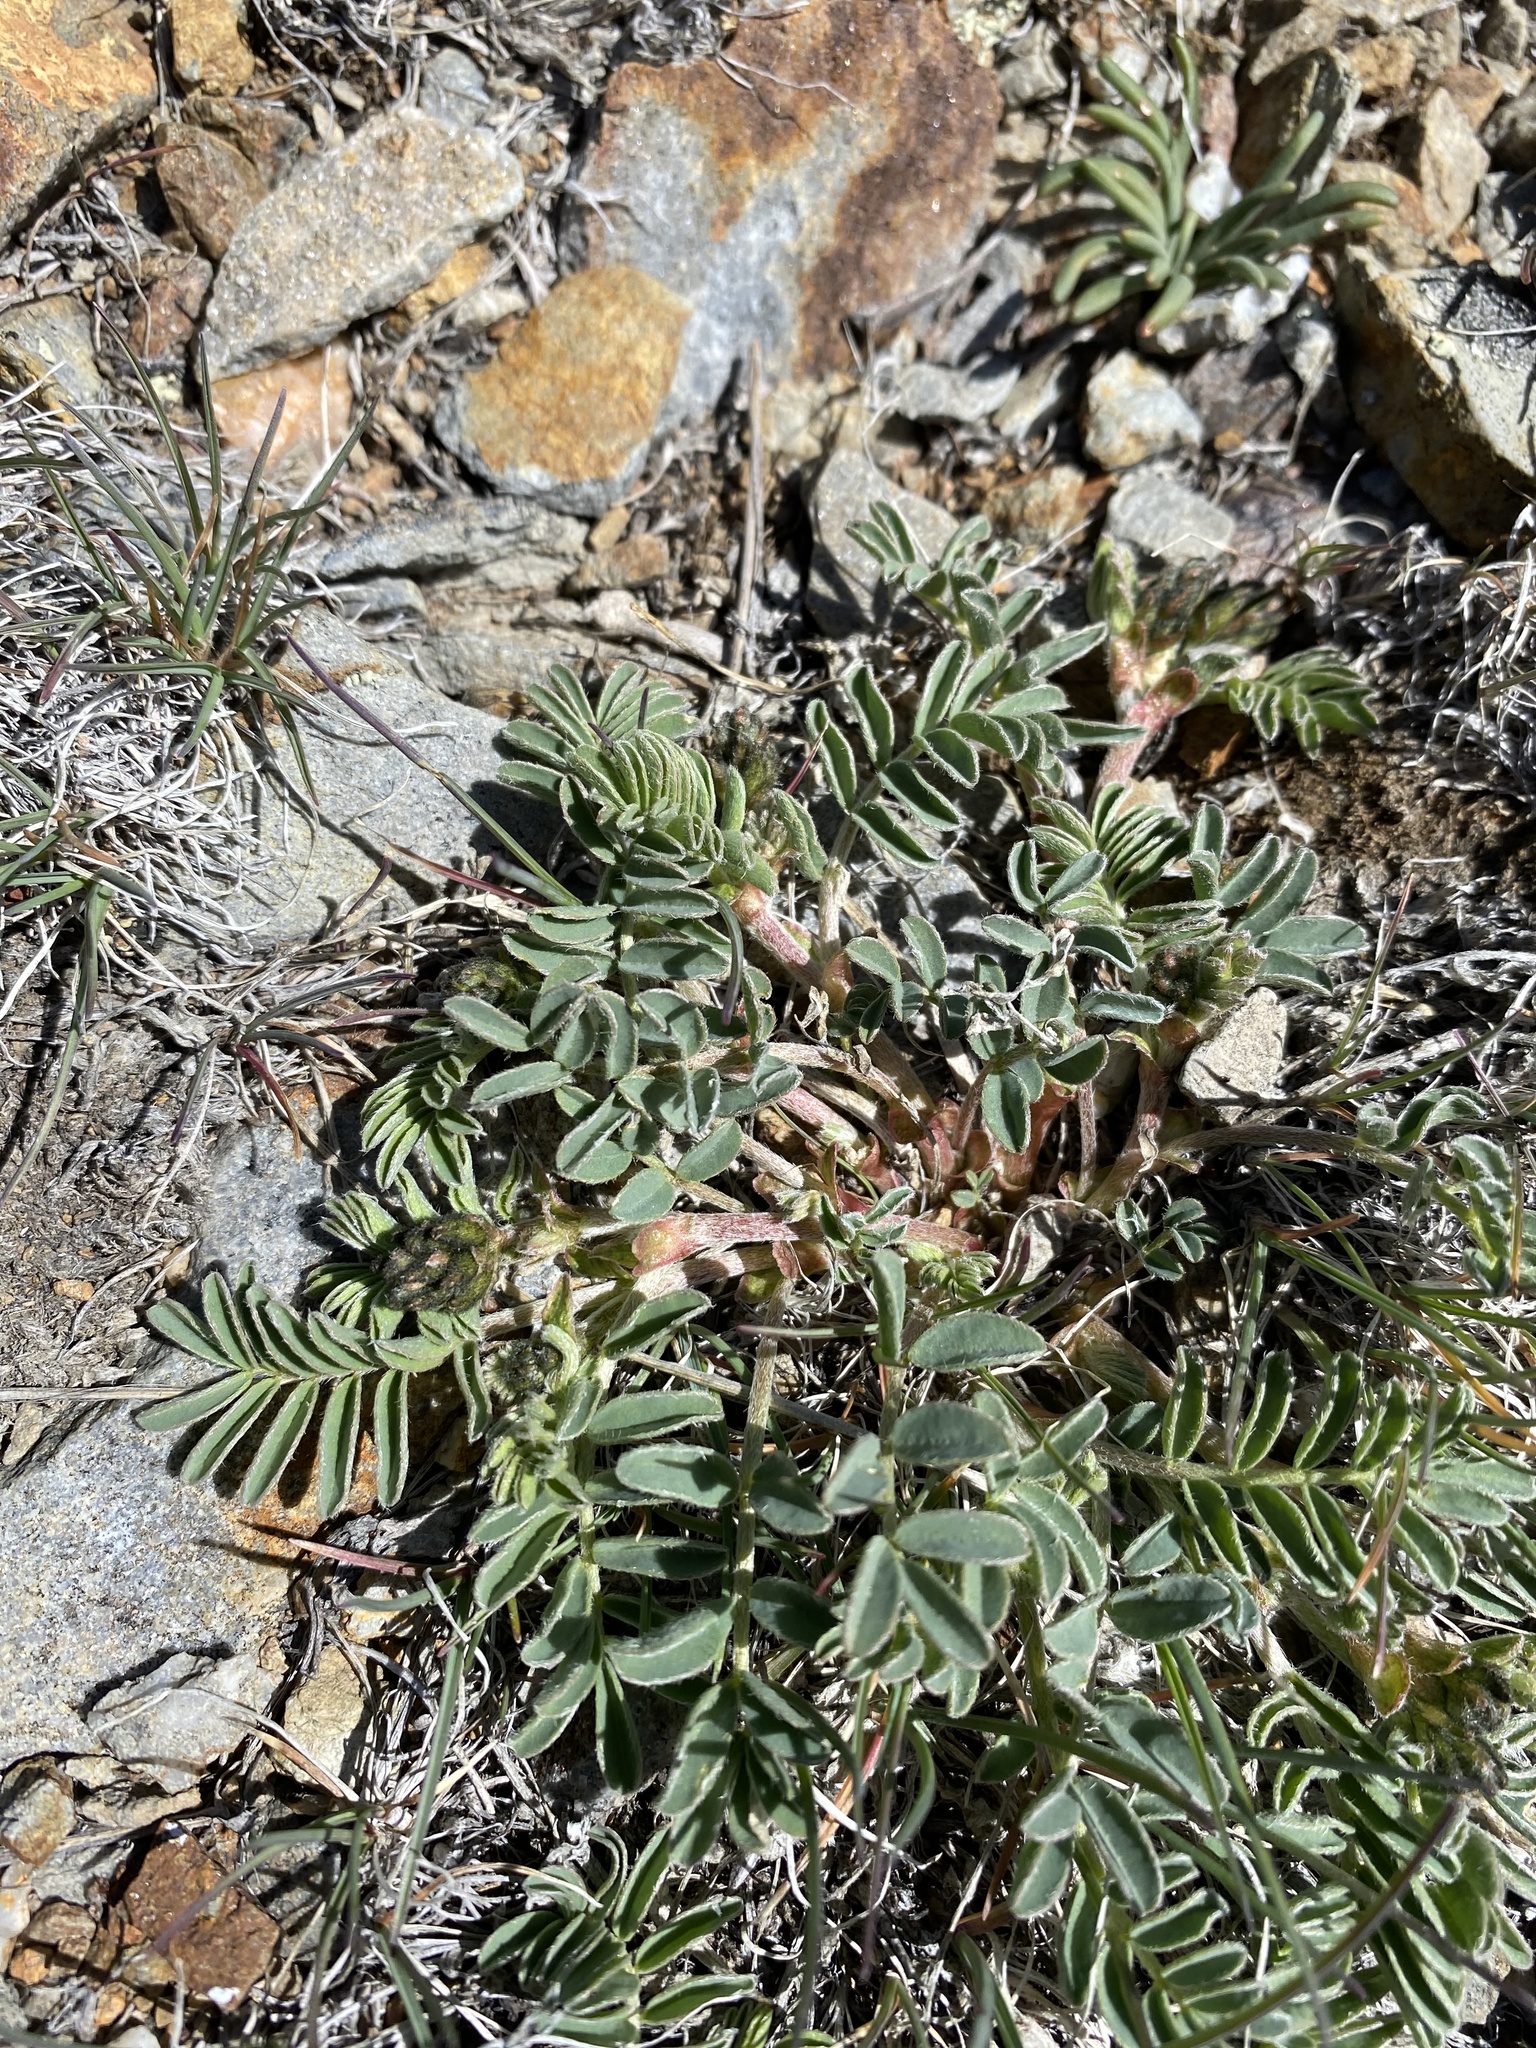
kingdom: Plantae
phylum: Tracheophyta
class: Magnoliopsida
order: Fabales
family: Fabaceae
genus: Astragalus
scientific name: Astragalus cibarius
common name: Browse milk-vetch
